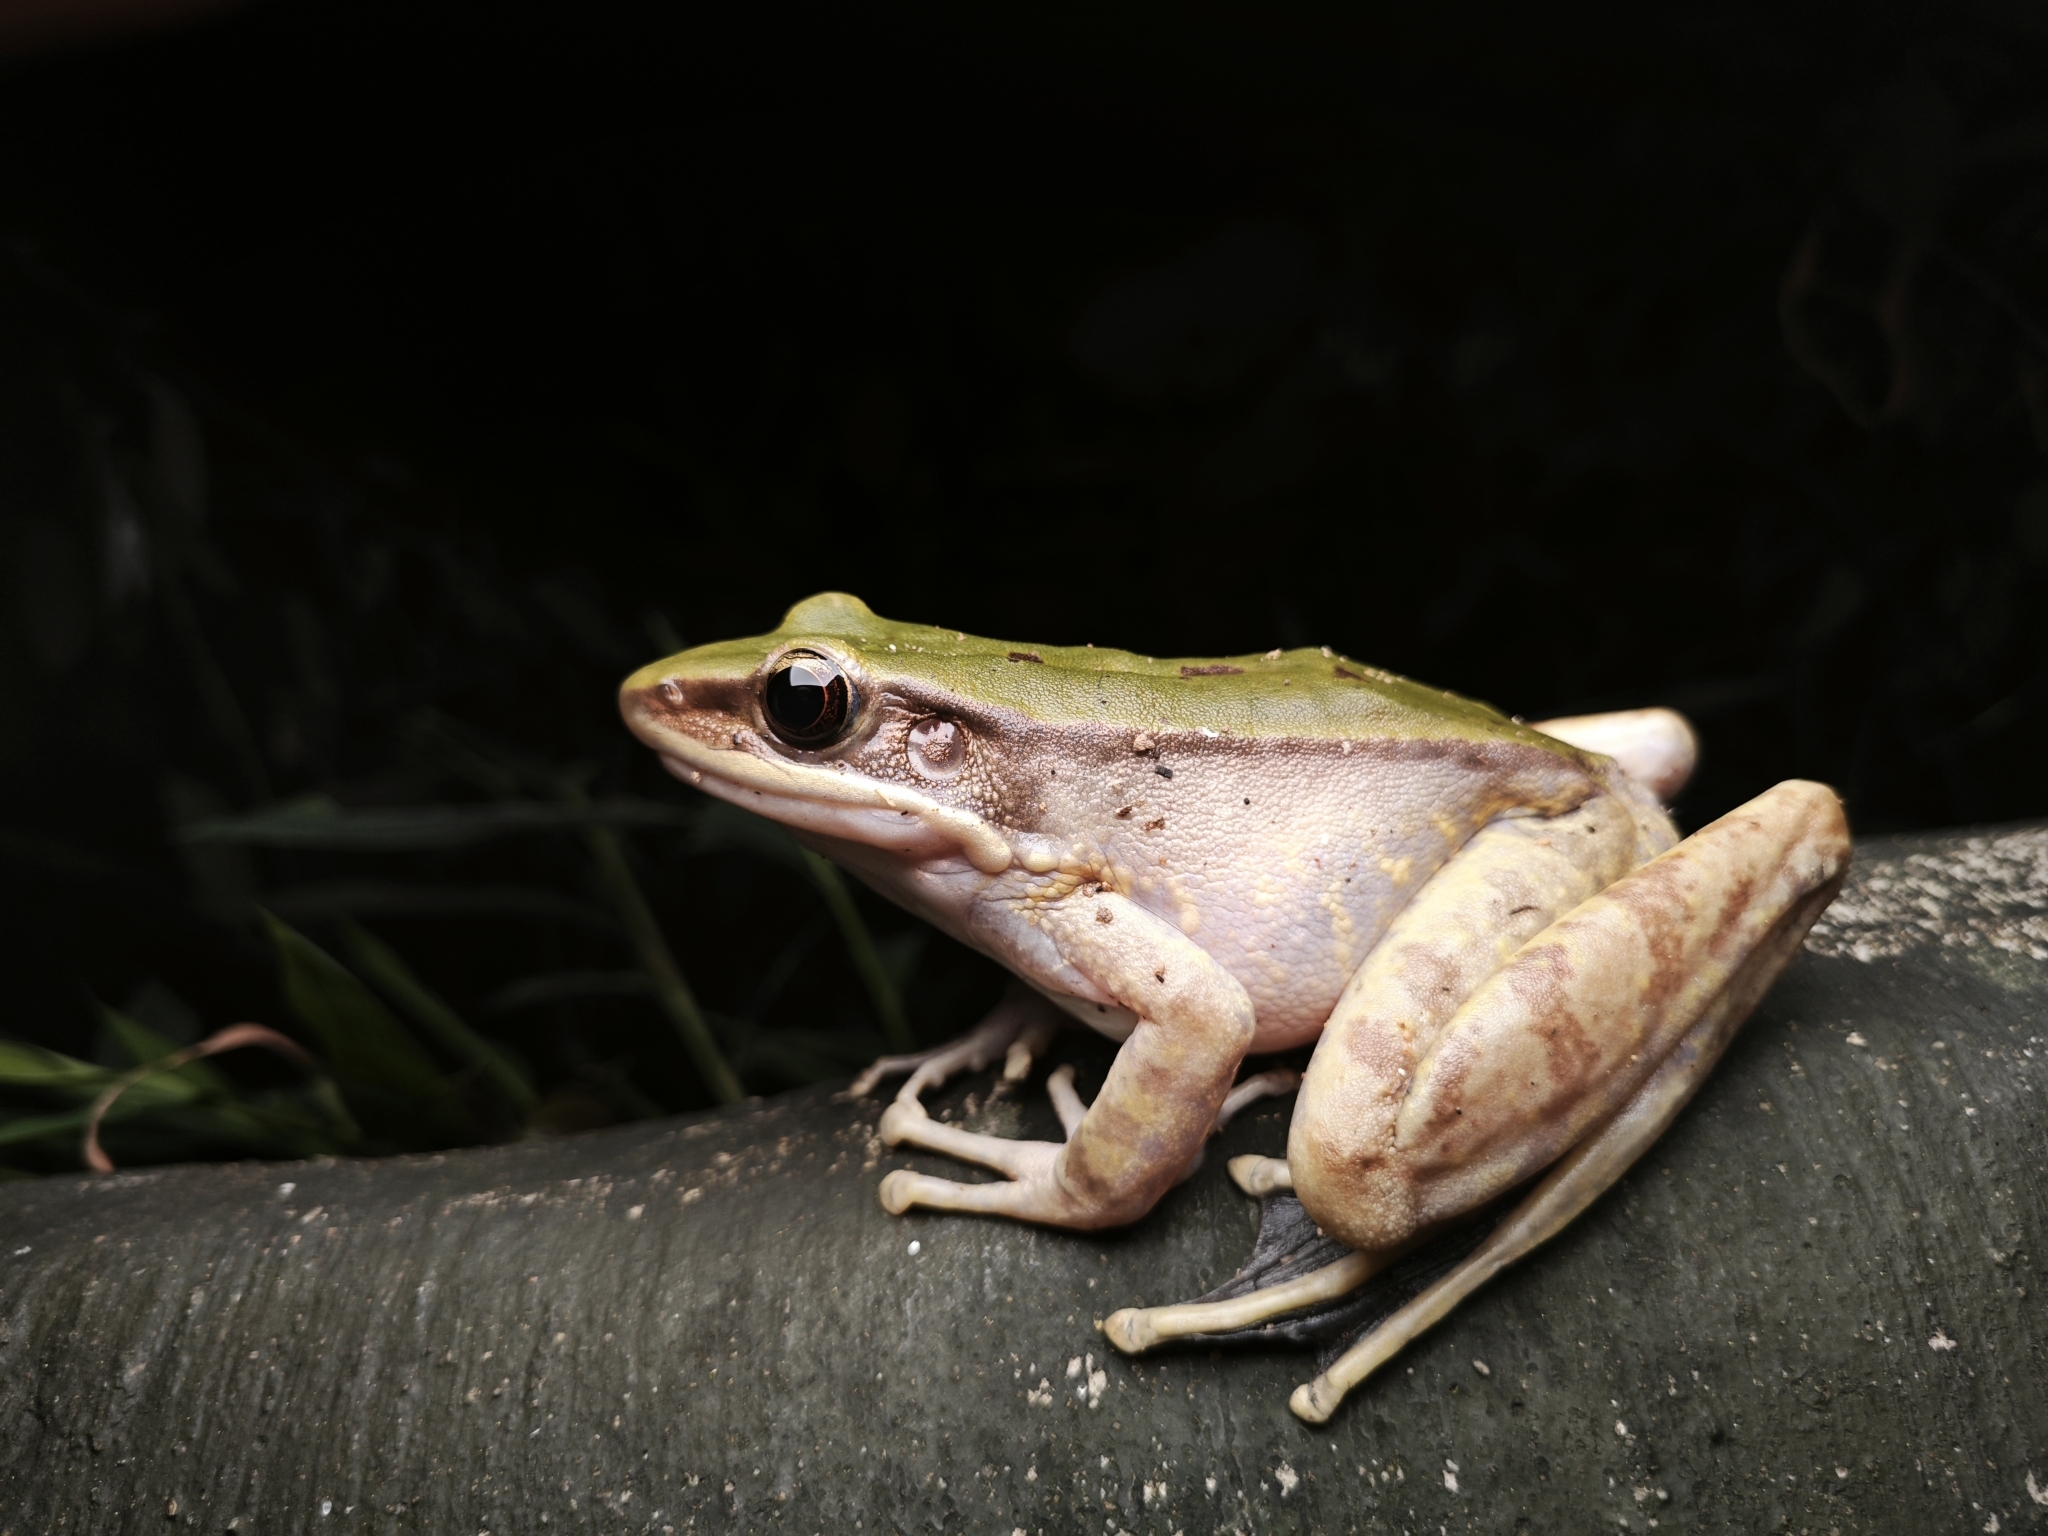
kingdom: Animalia
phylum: Chordata
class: Amphibia
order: Anura
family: Ranidae
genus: Odorrana
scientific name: Odorrana graminea
